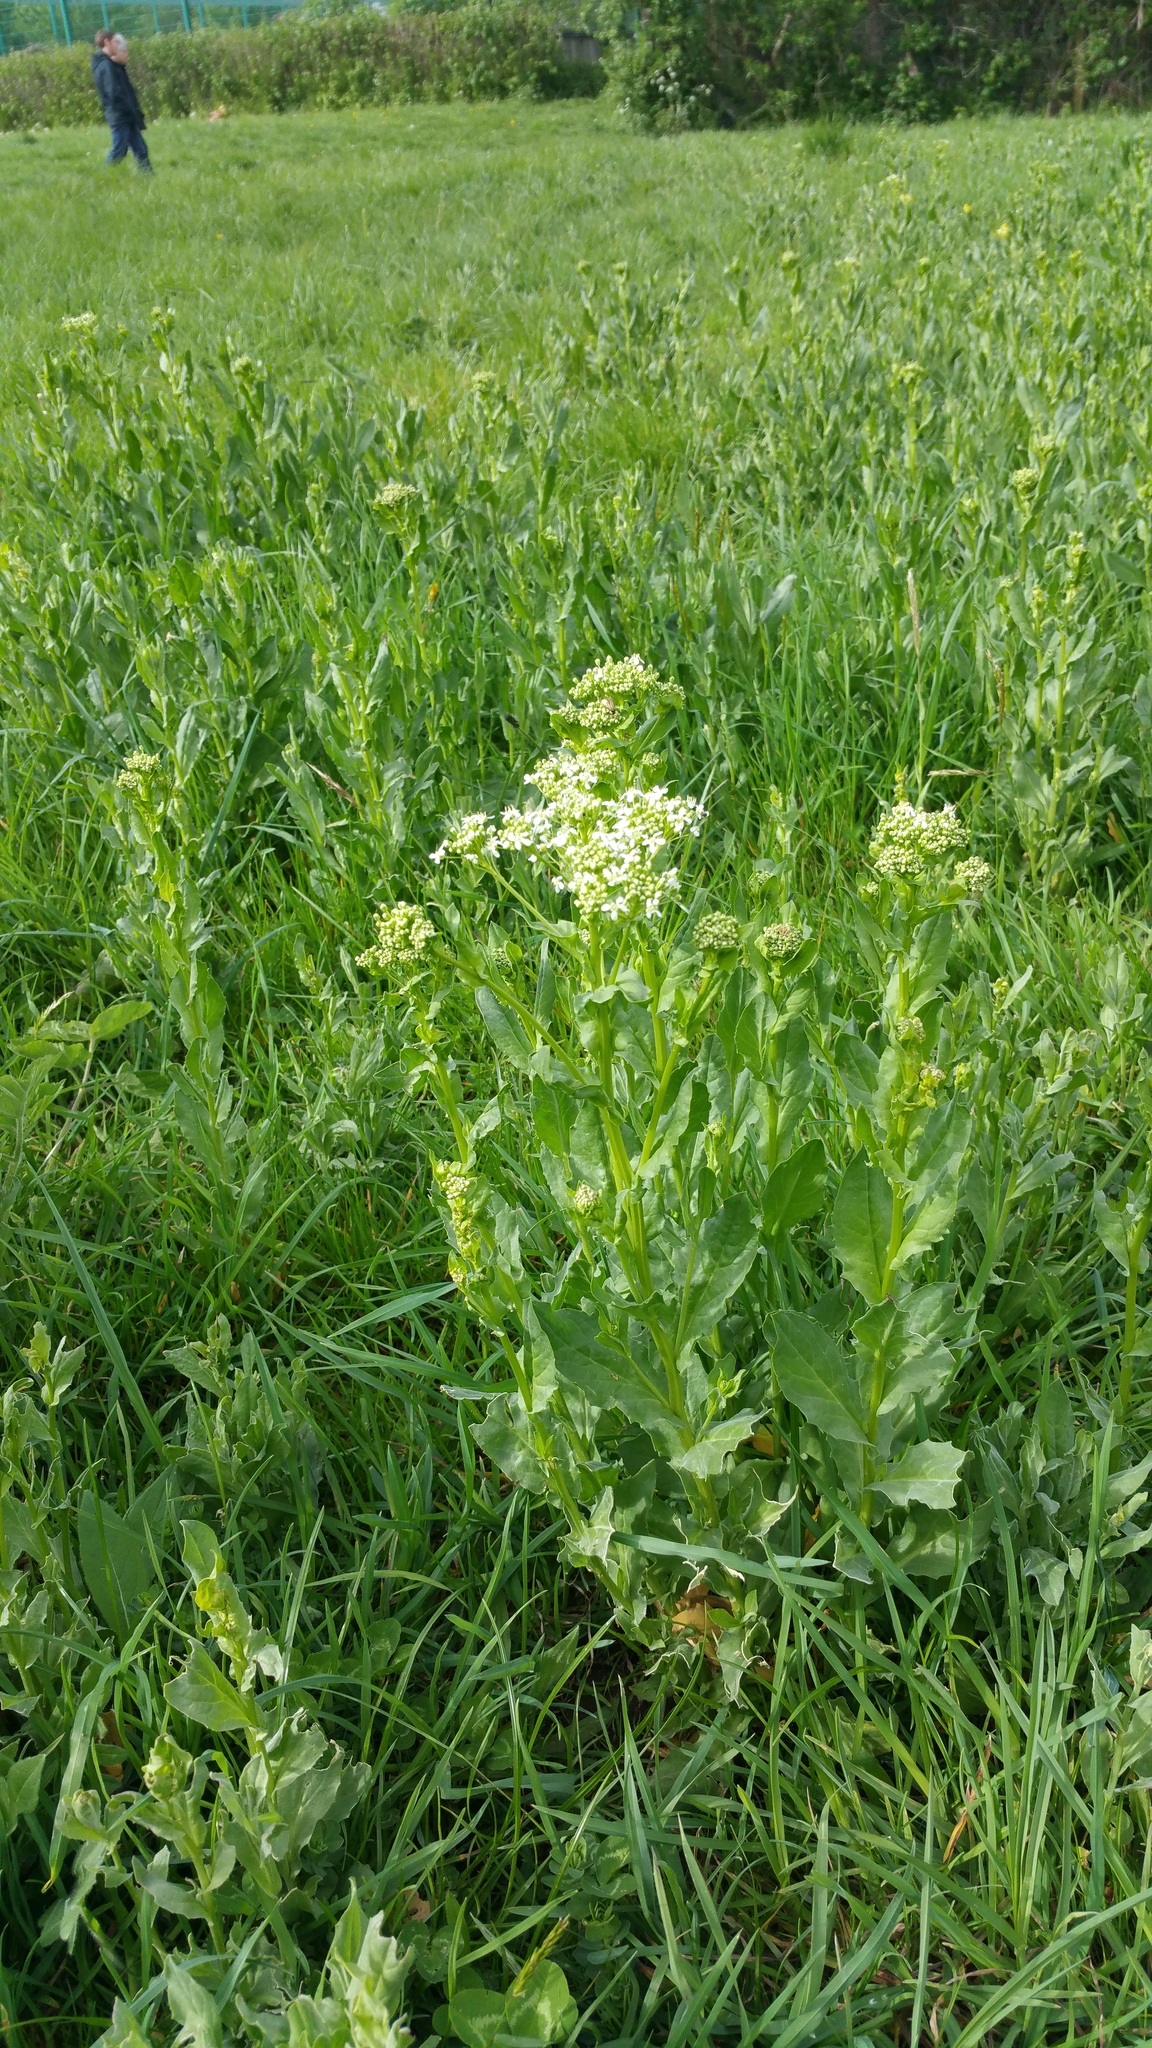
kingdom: Plantae
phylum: Tracheophyta
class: Magnoliopsida
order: Brassicales
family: Brassicaceae
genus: Lepidium
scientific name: Lepidium draba
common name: Hoary cress
